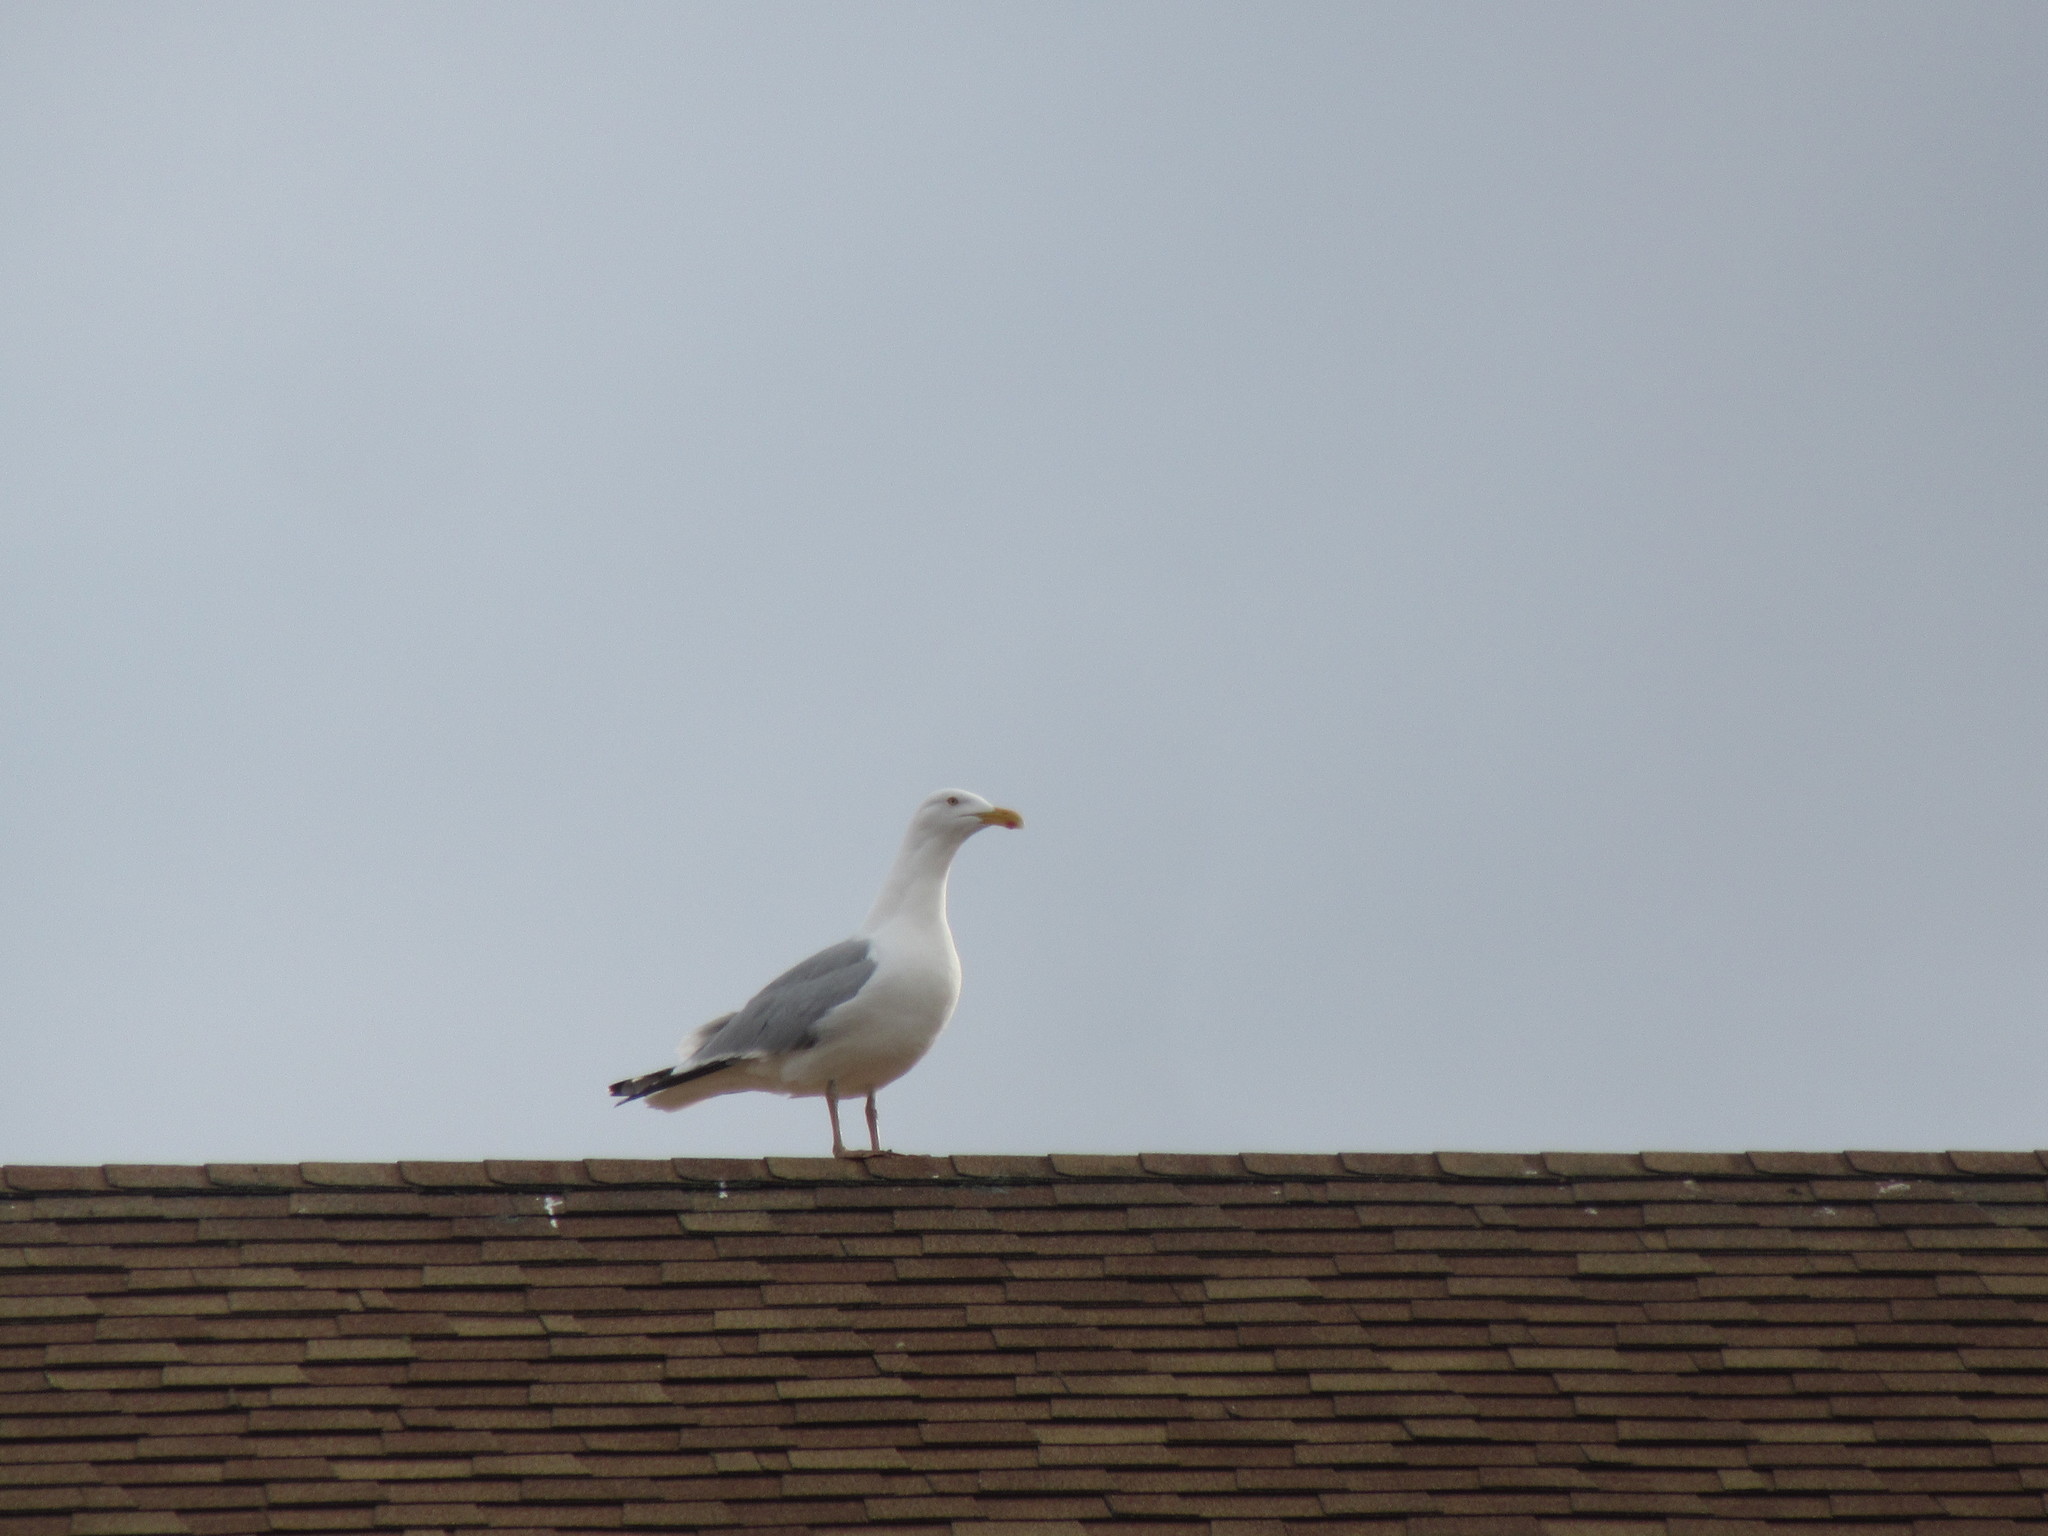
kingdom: Animalia
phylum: Chordata
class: Aves
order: Charadriiformes
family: Laridae
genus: Larus
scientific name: Larus argentatus
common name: Herring gull
